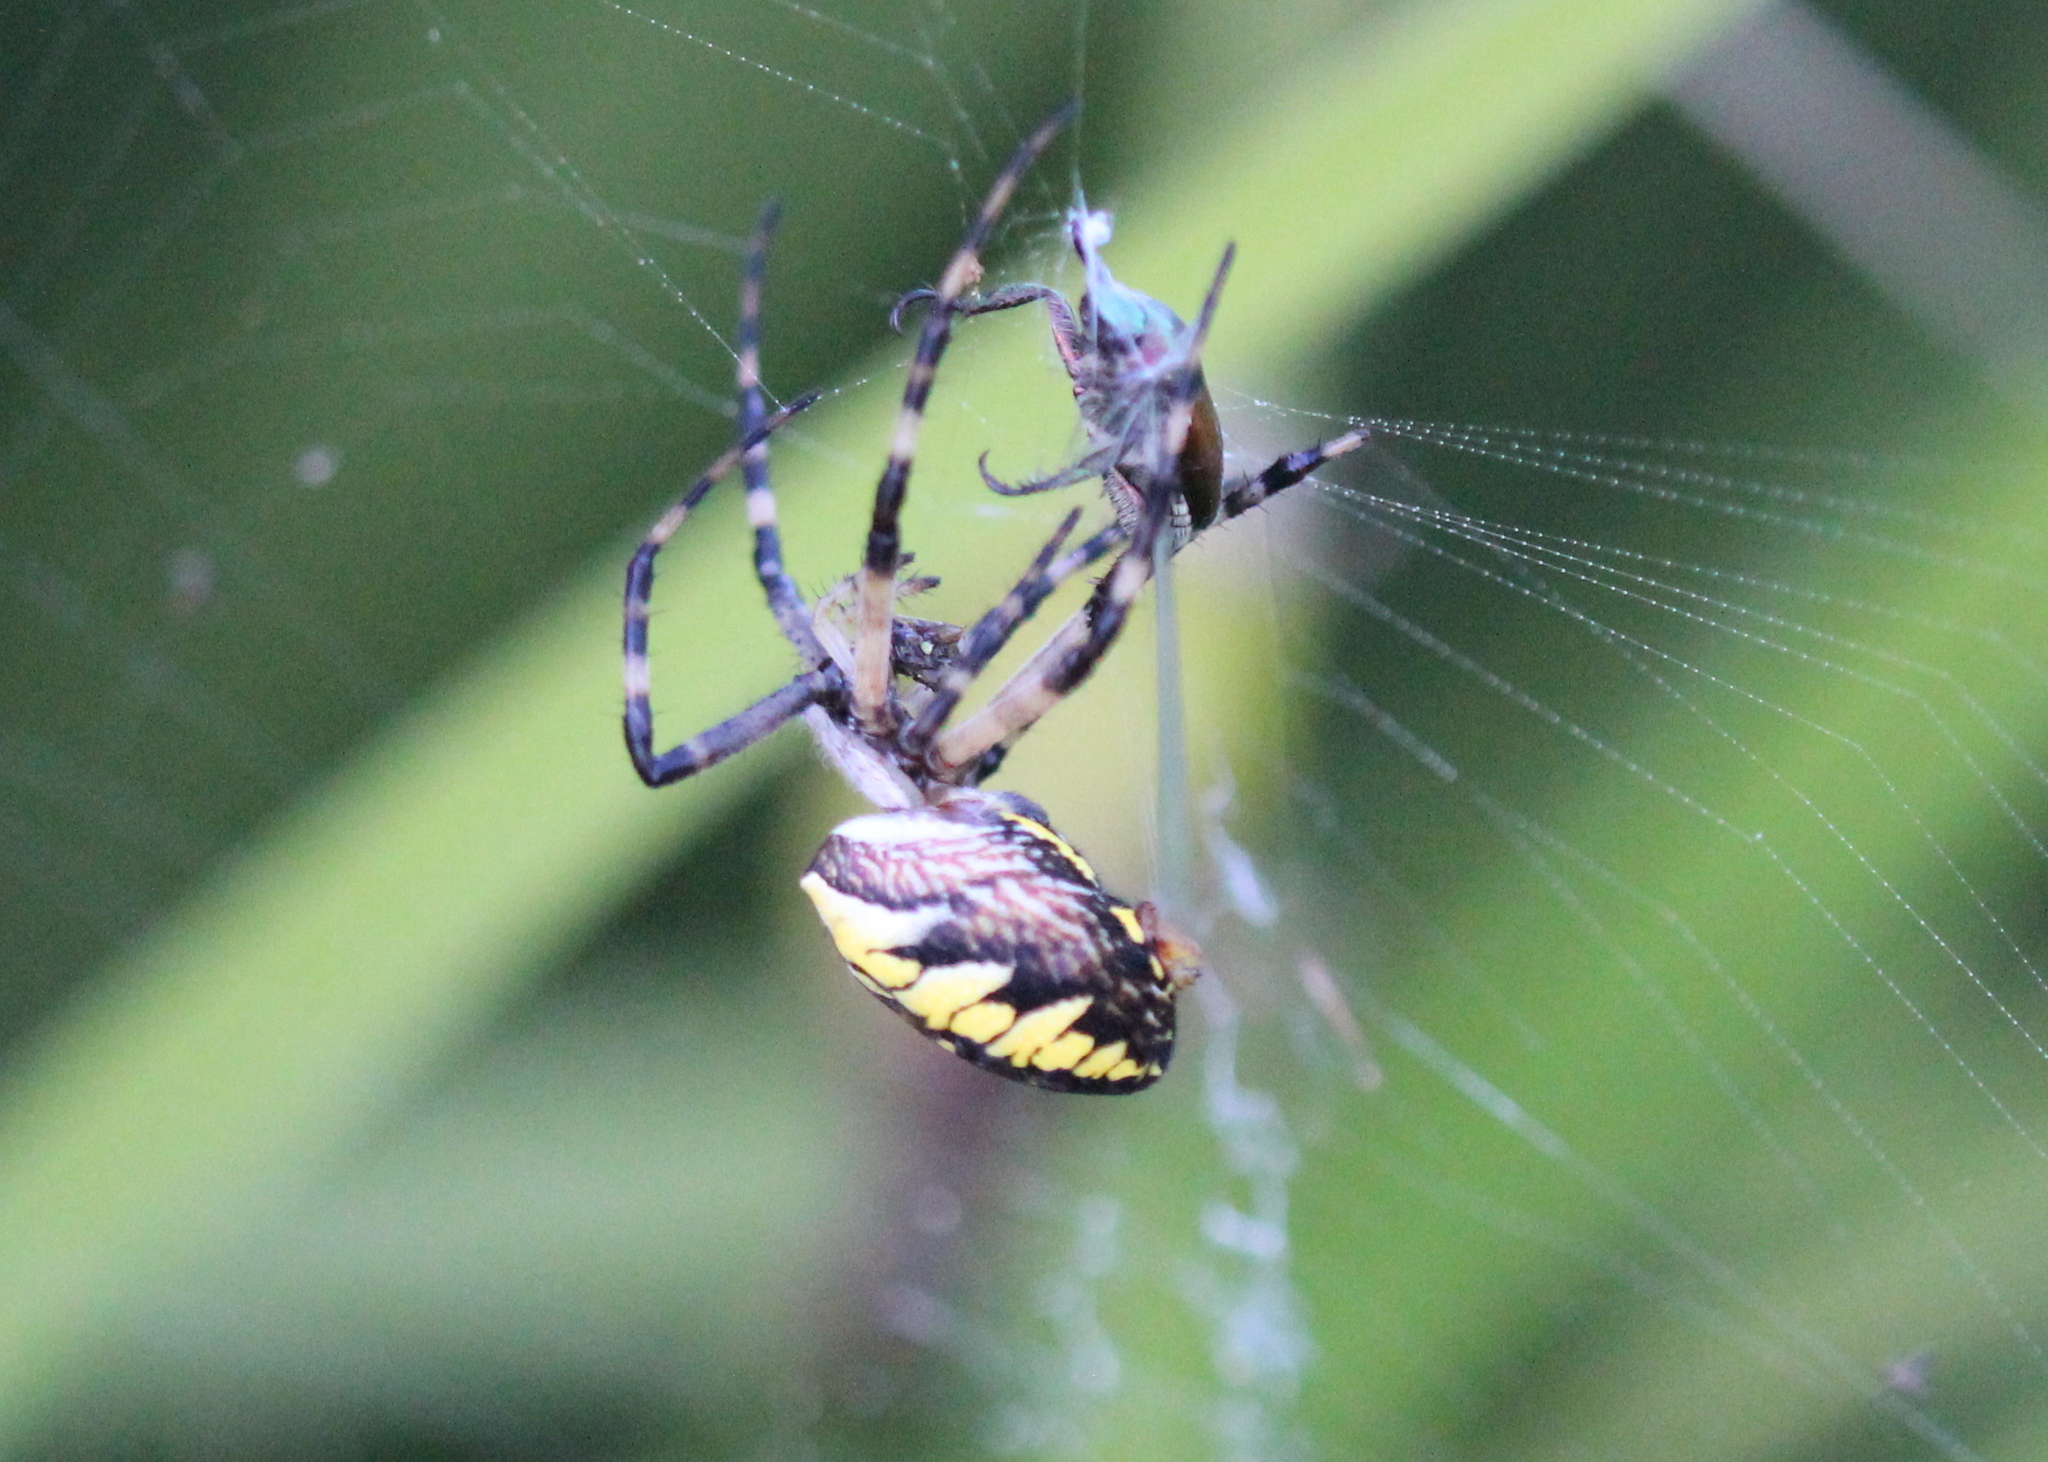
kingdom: Animalia
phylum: Arthropoda
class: Arachnida
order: Araneae
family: Araneidae
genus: Argiope
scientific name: Argiope aurantia
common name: Orb weavers
